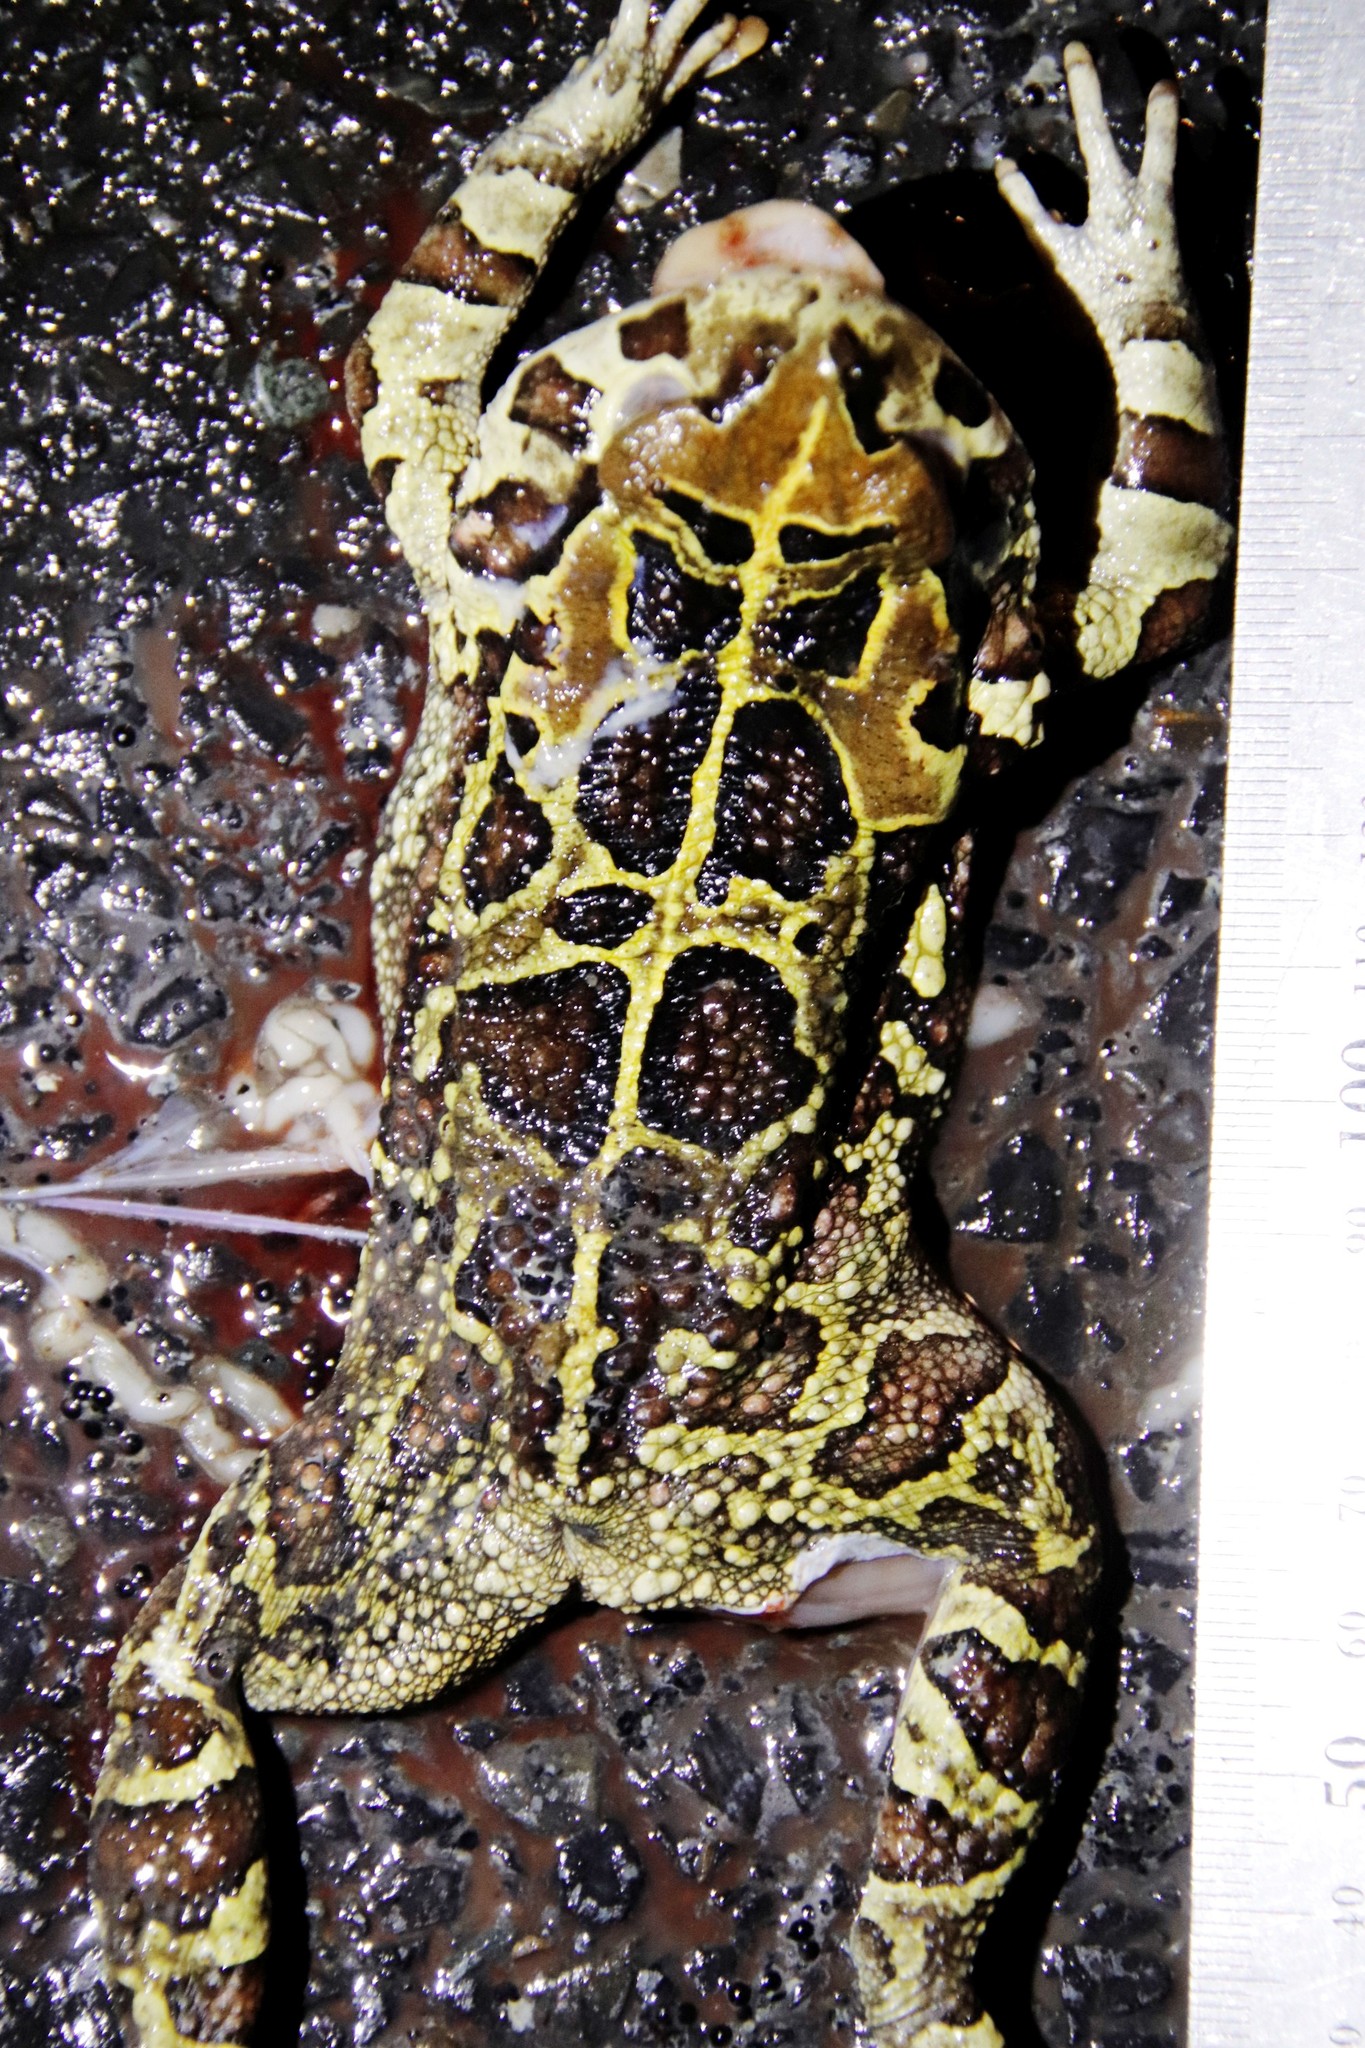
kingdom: Animalia
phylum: Chordata
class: Amphibia
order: Anura
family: Bufonidae
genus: Sclerophrys
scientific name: Sclerophrys pantherina
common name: Panther toad
